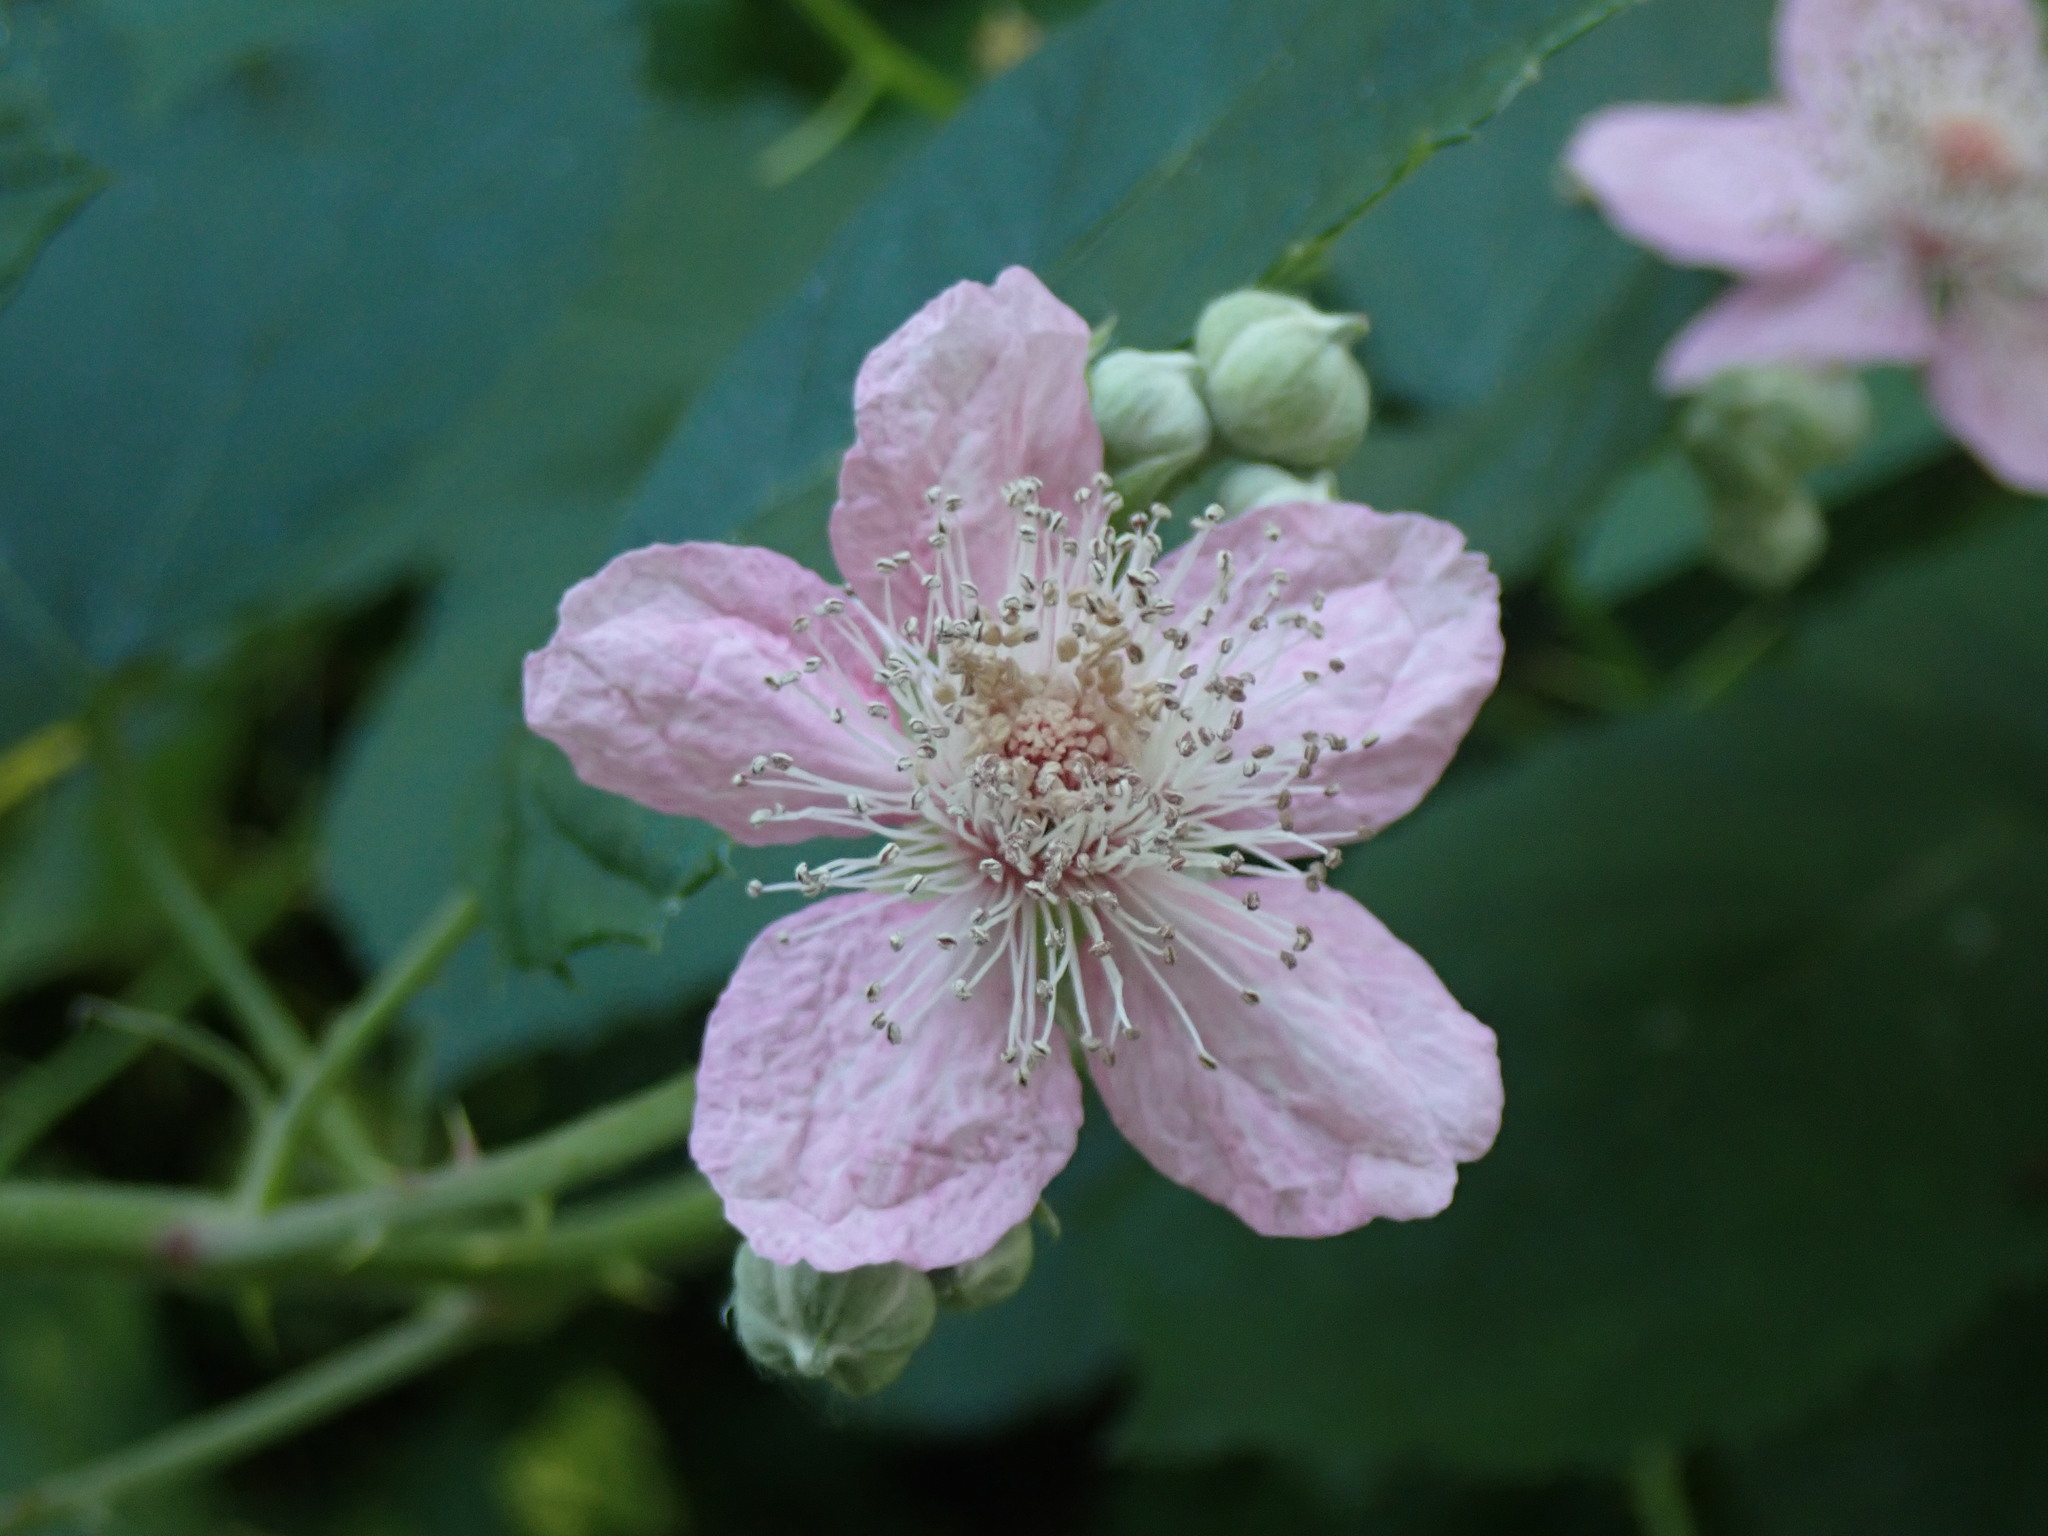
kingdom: Plantae
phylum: Tracheophyta
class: Magnoliopsida
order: Rosales
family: Rosaceae
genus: Rubus
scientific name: Rubus bifrons
